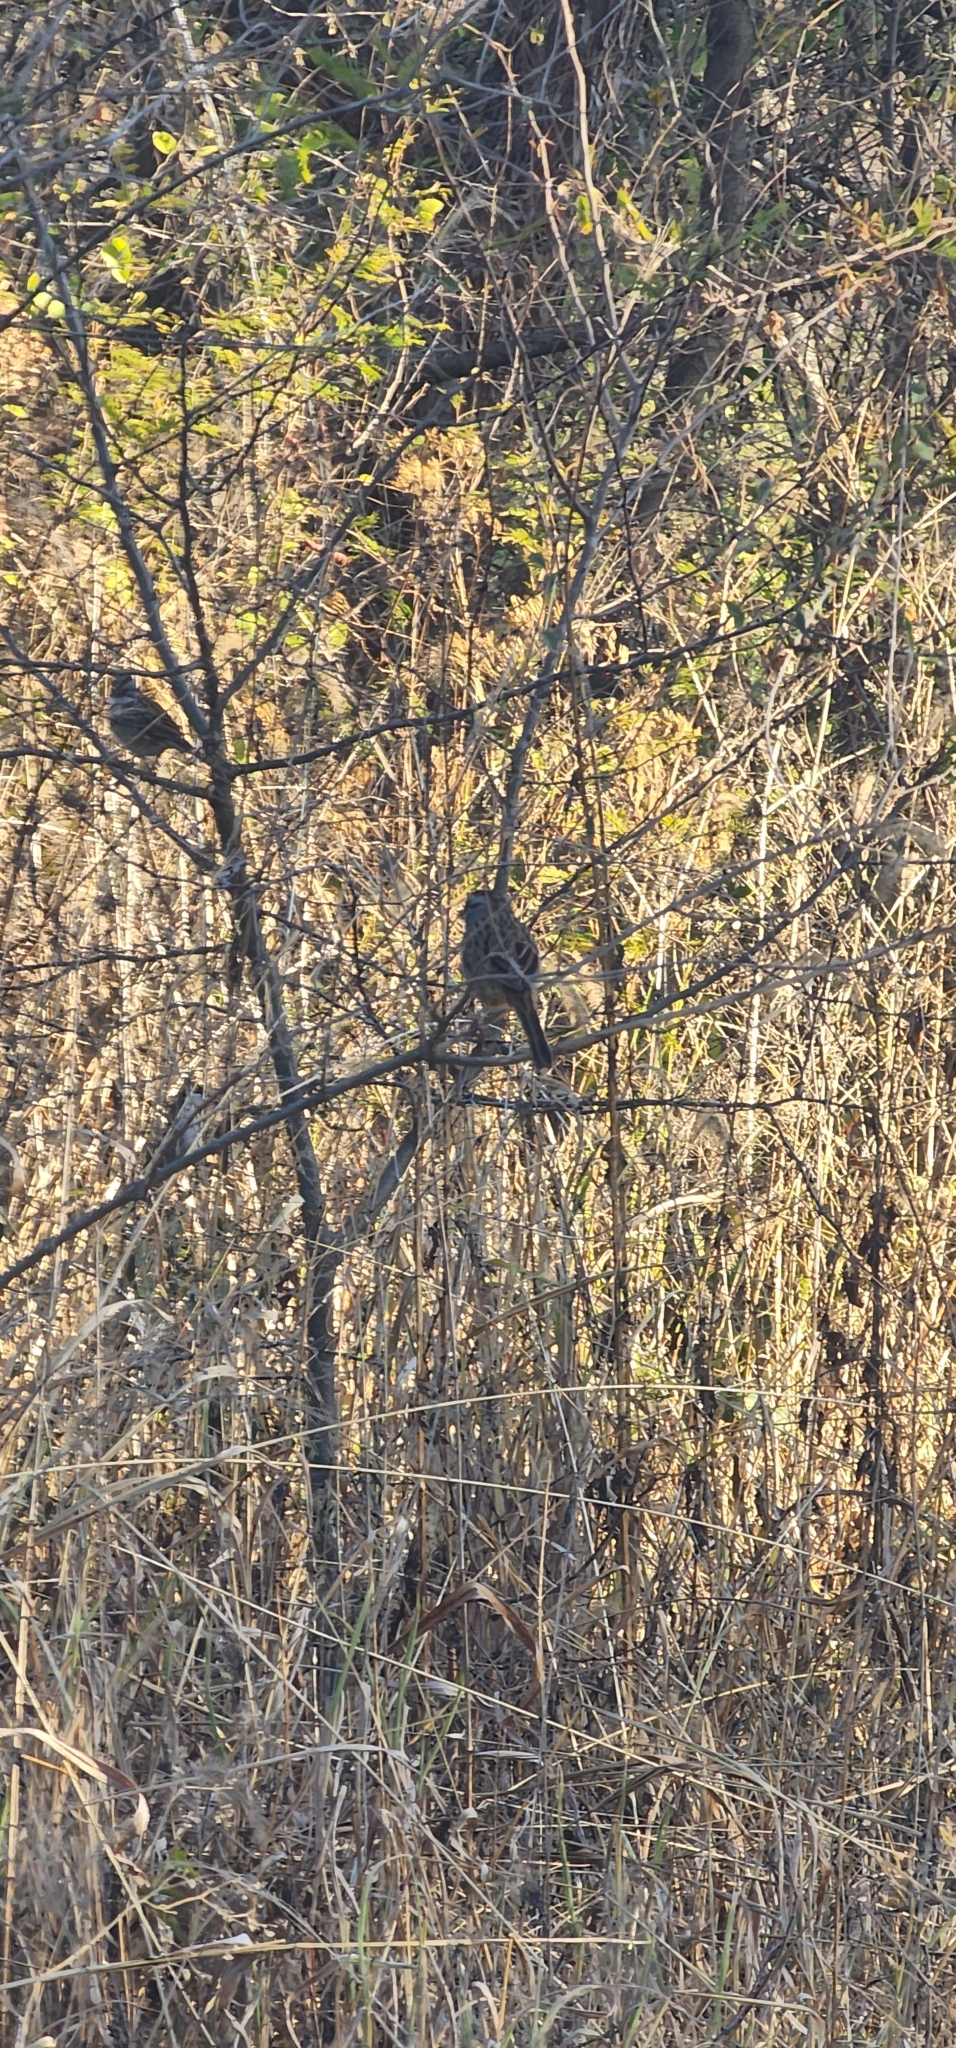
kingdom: Animalia
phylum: Chordata
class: Aves
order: Passeriformes
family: Passerellidae
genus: Rhynchospiza
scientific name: Rhynchospiza dabbenei
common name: Yungas sparrow
